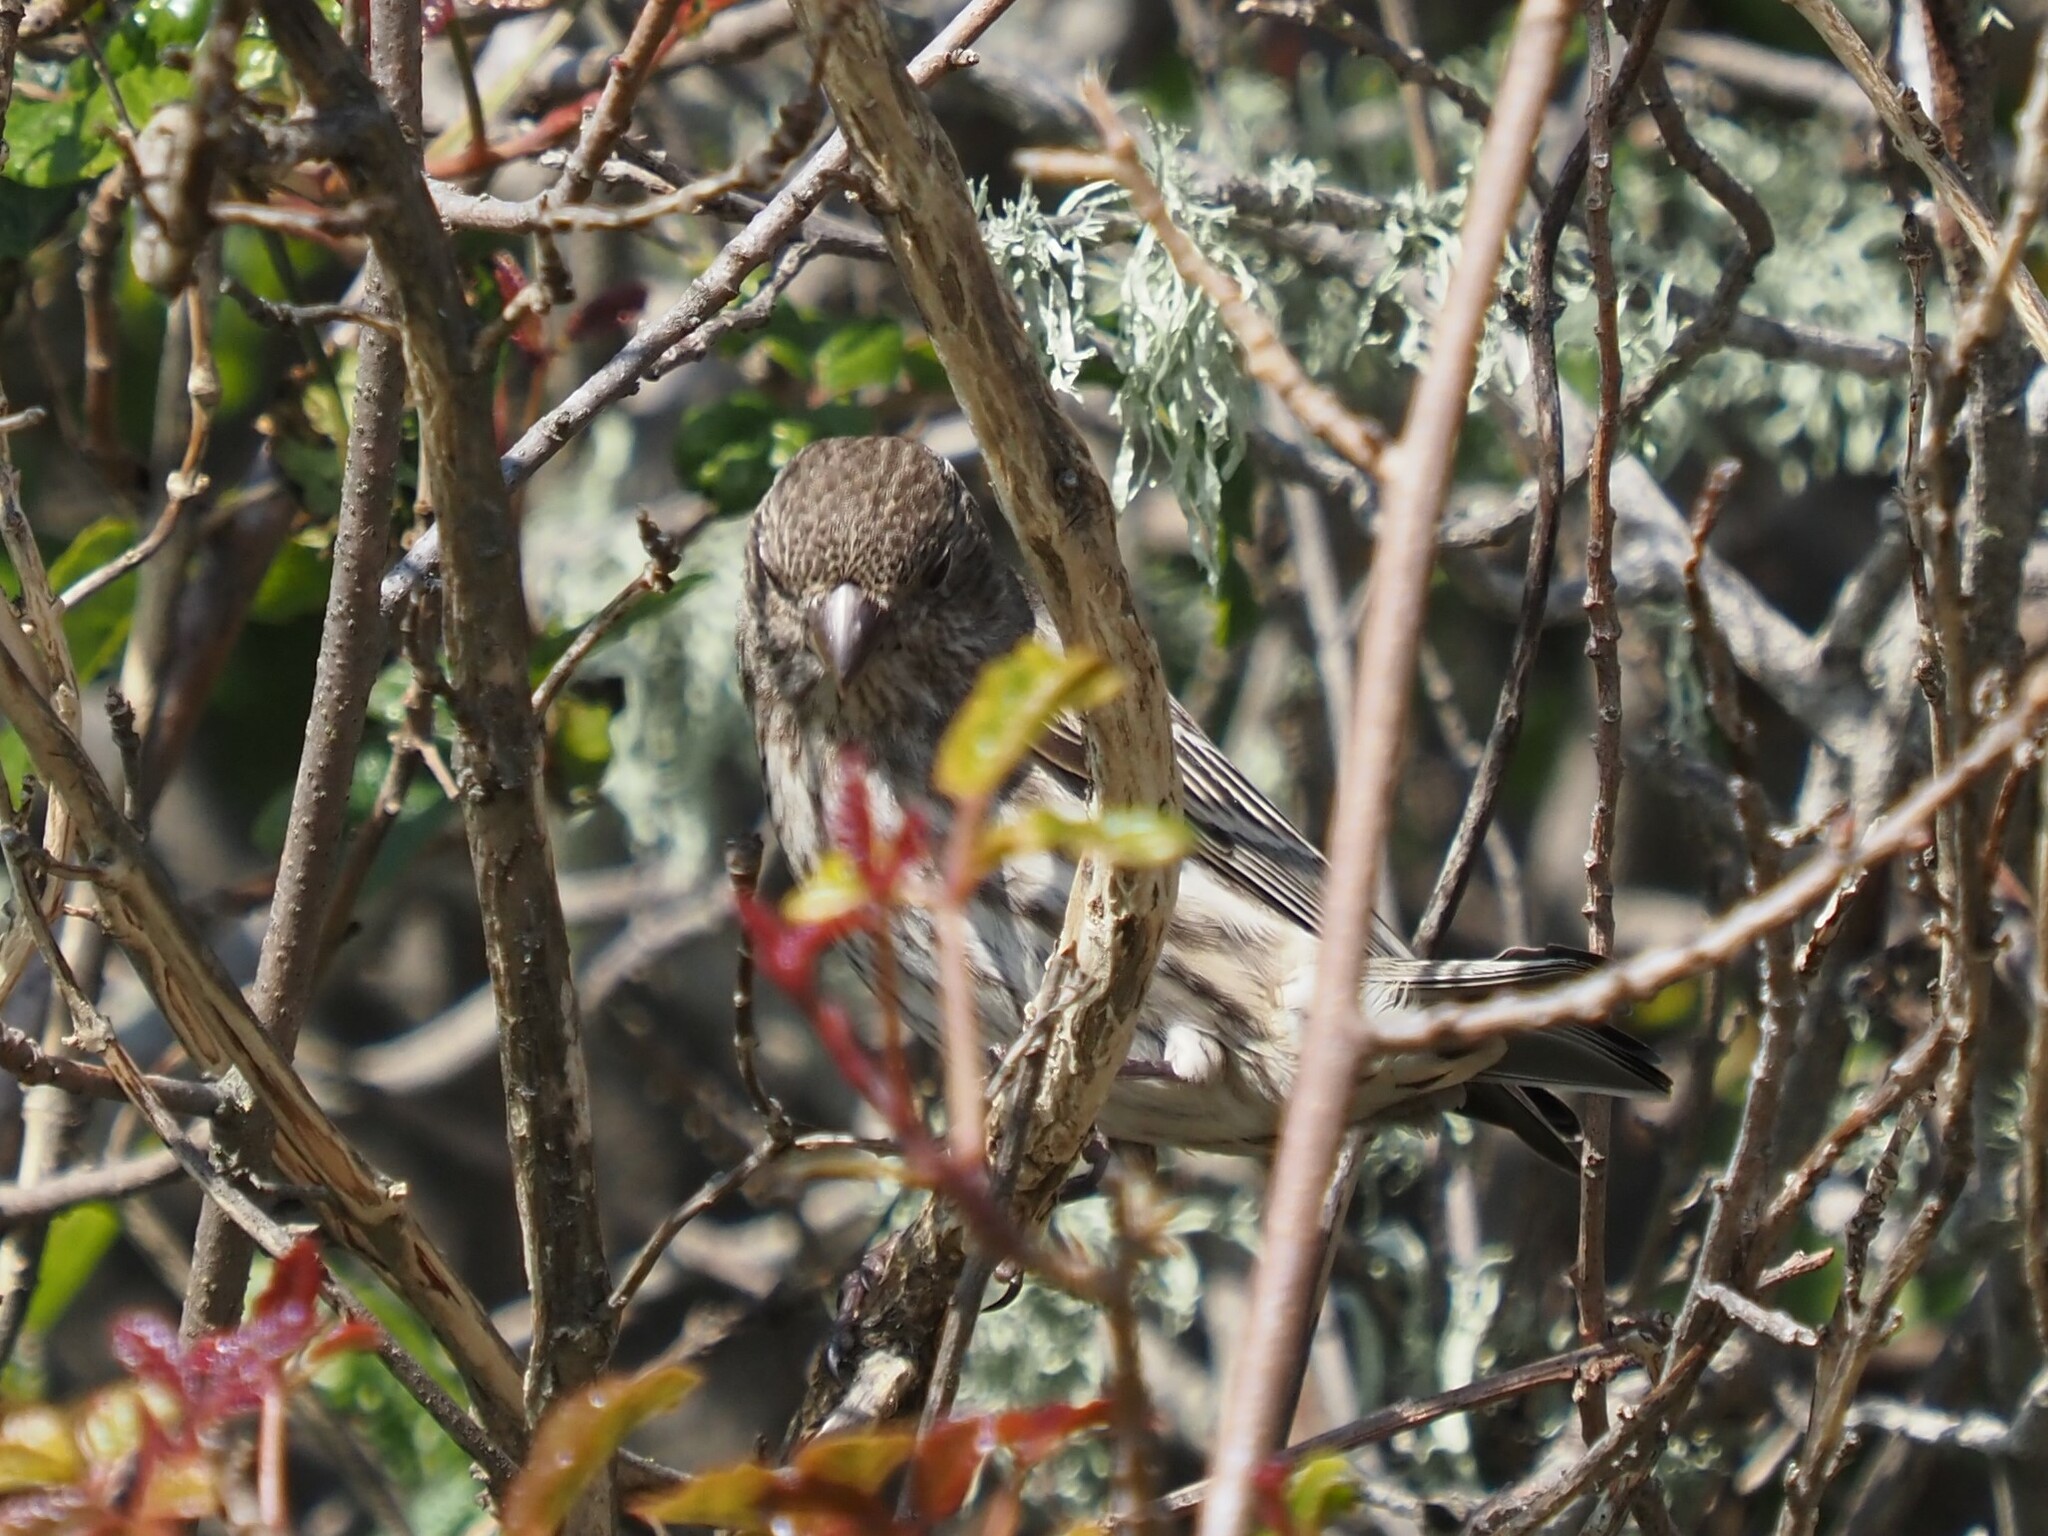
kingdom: Animalia
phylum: Chordata
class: Aves
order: Passeriformes
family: Fringillidae
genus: Haemorhous
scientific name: Haemorhous mexicanus
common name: House finch
